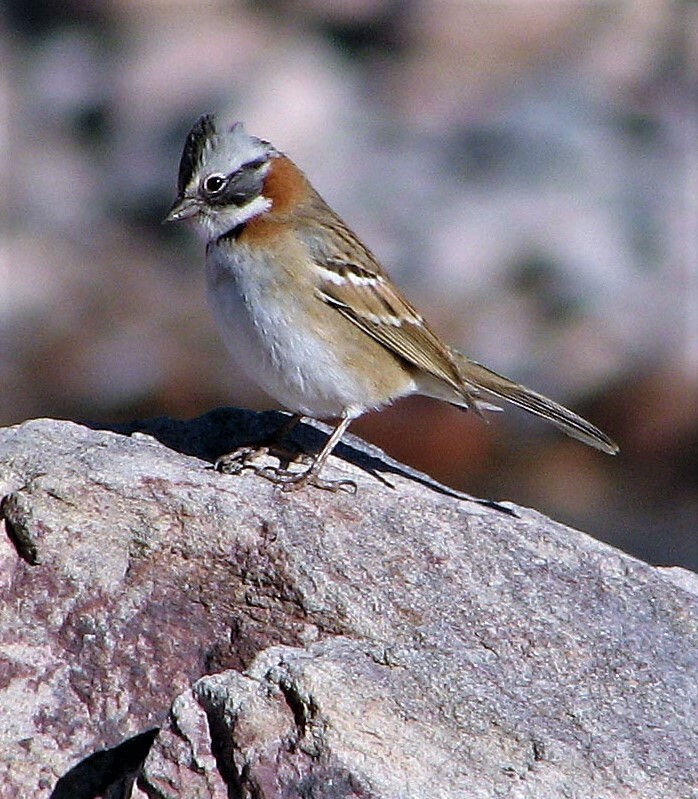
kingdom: Animalia
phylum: Chordata
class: Aves
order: Passeriformes
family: Passerellidae
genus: Zonotrichia
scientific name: Zonotrichia capensis
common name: Rufous-collared sparrow
